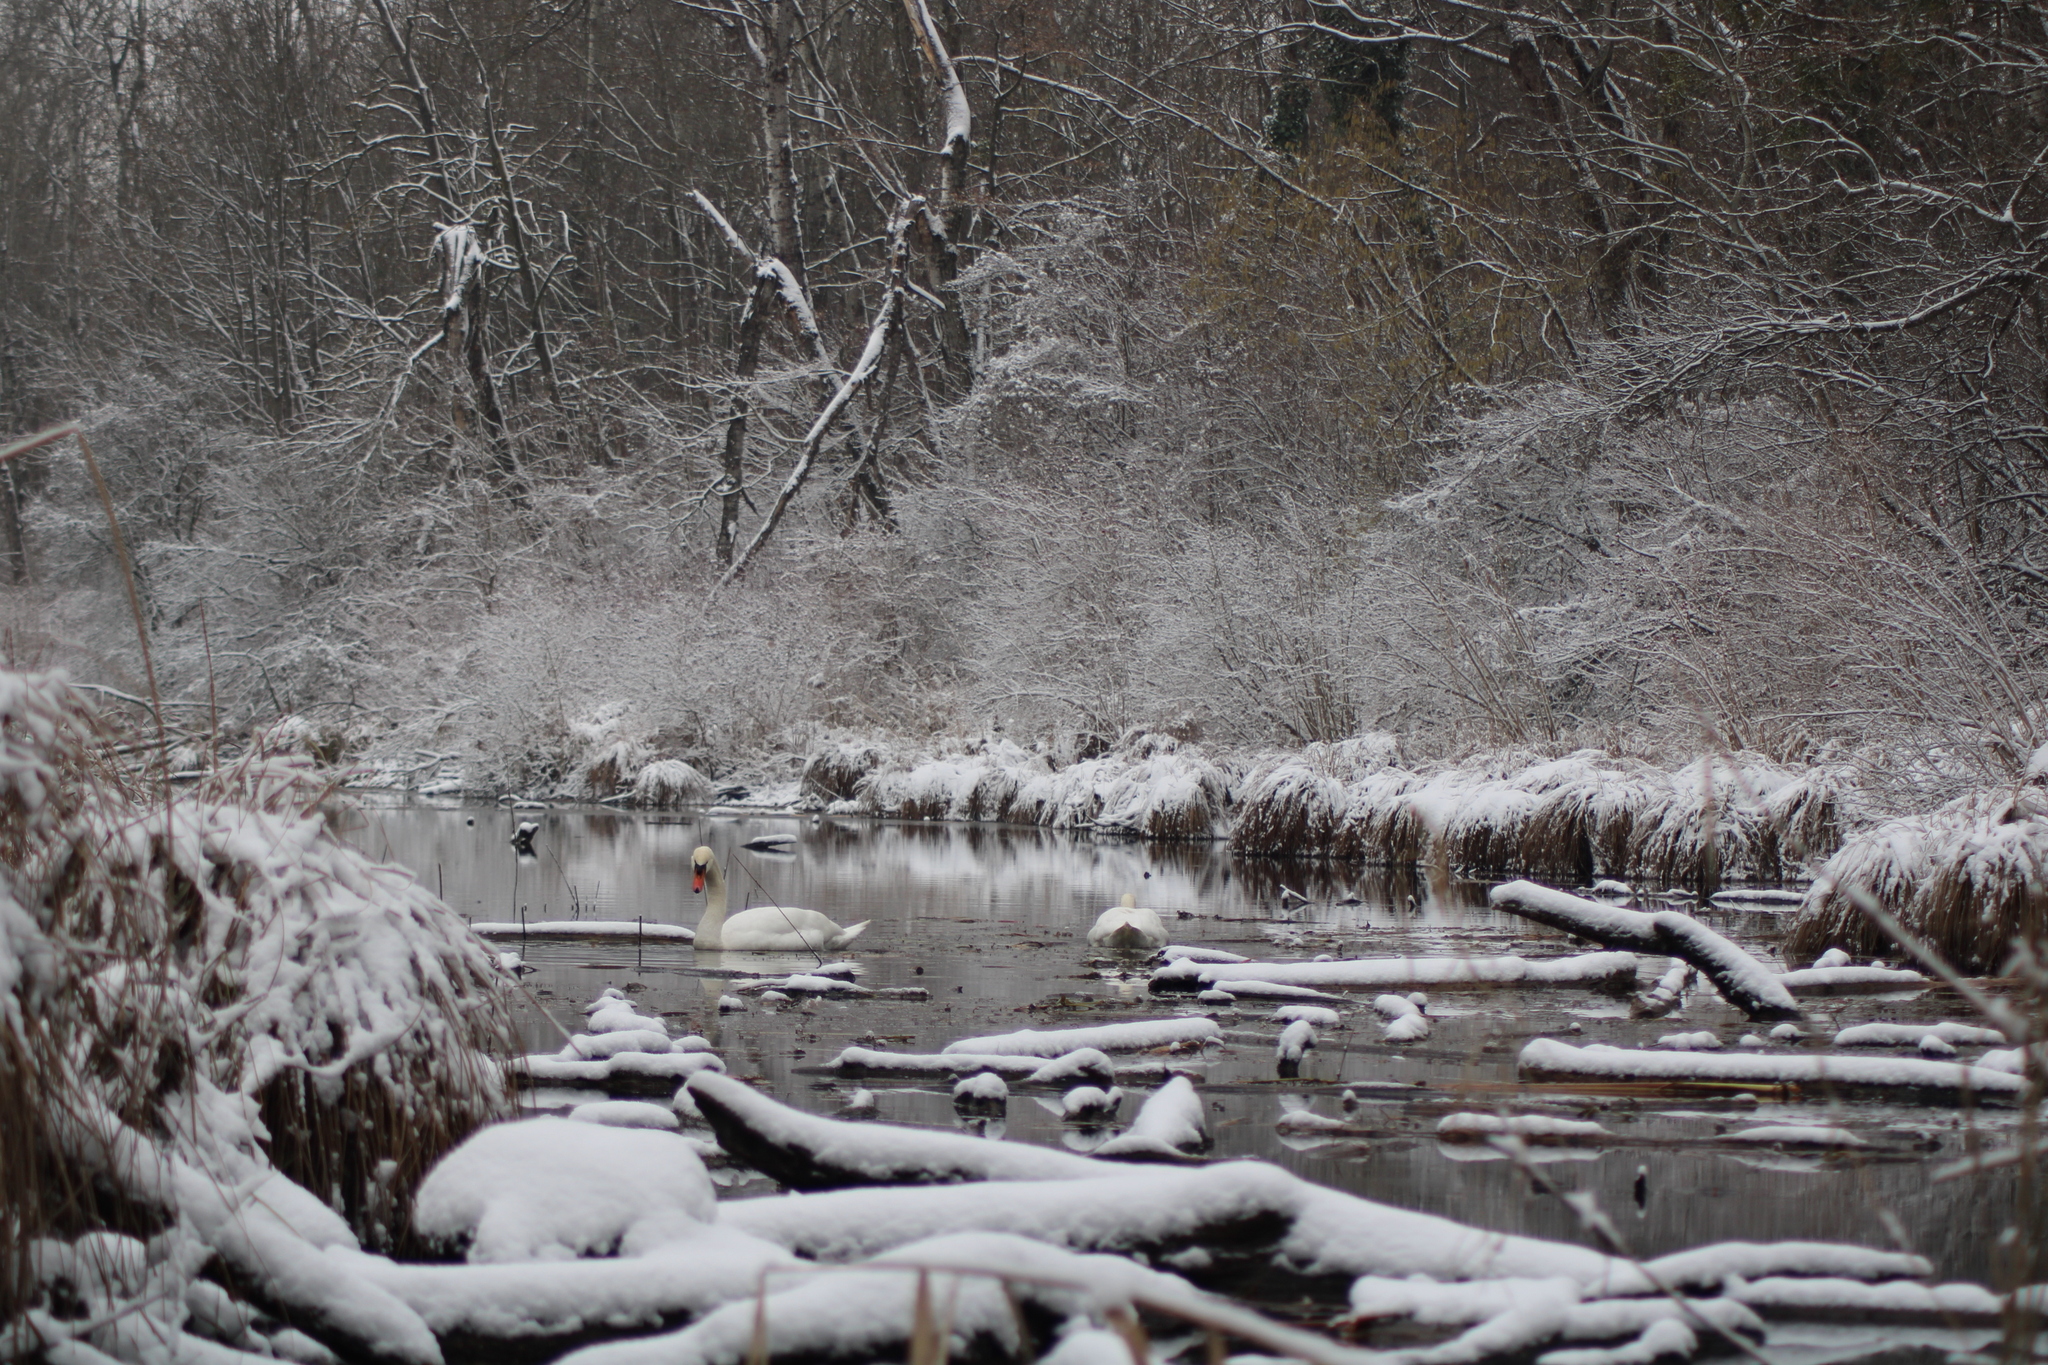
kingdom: Animalia
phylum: Chordata
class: Aves
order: Anseriformes
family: Anatidae
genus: Cygnus
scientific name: Cygnus olor
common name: Mute swan
